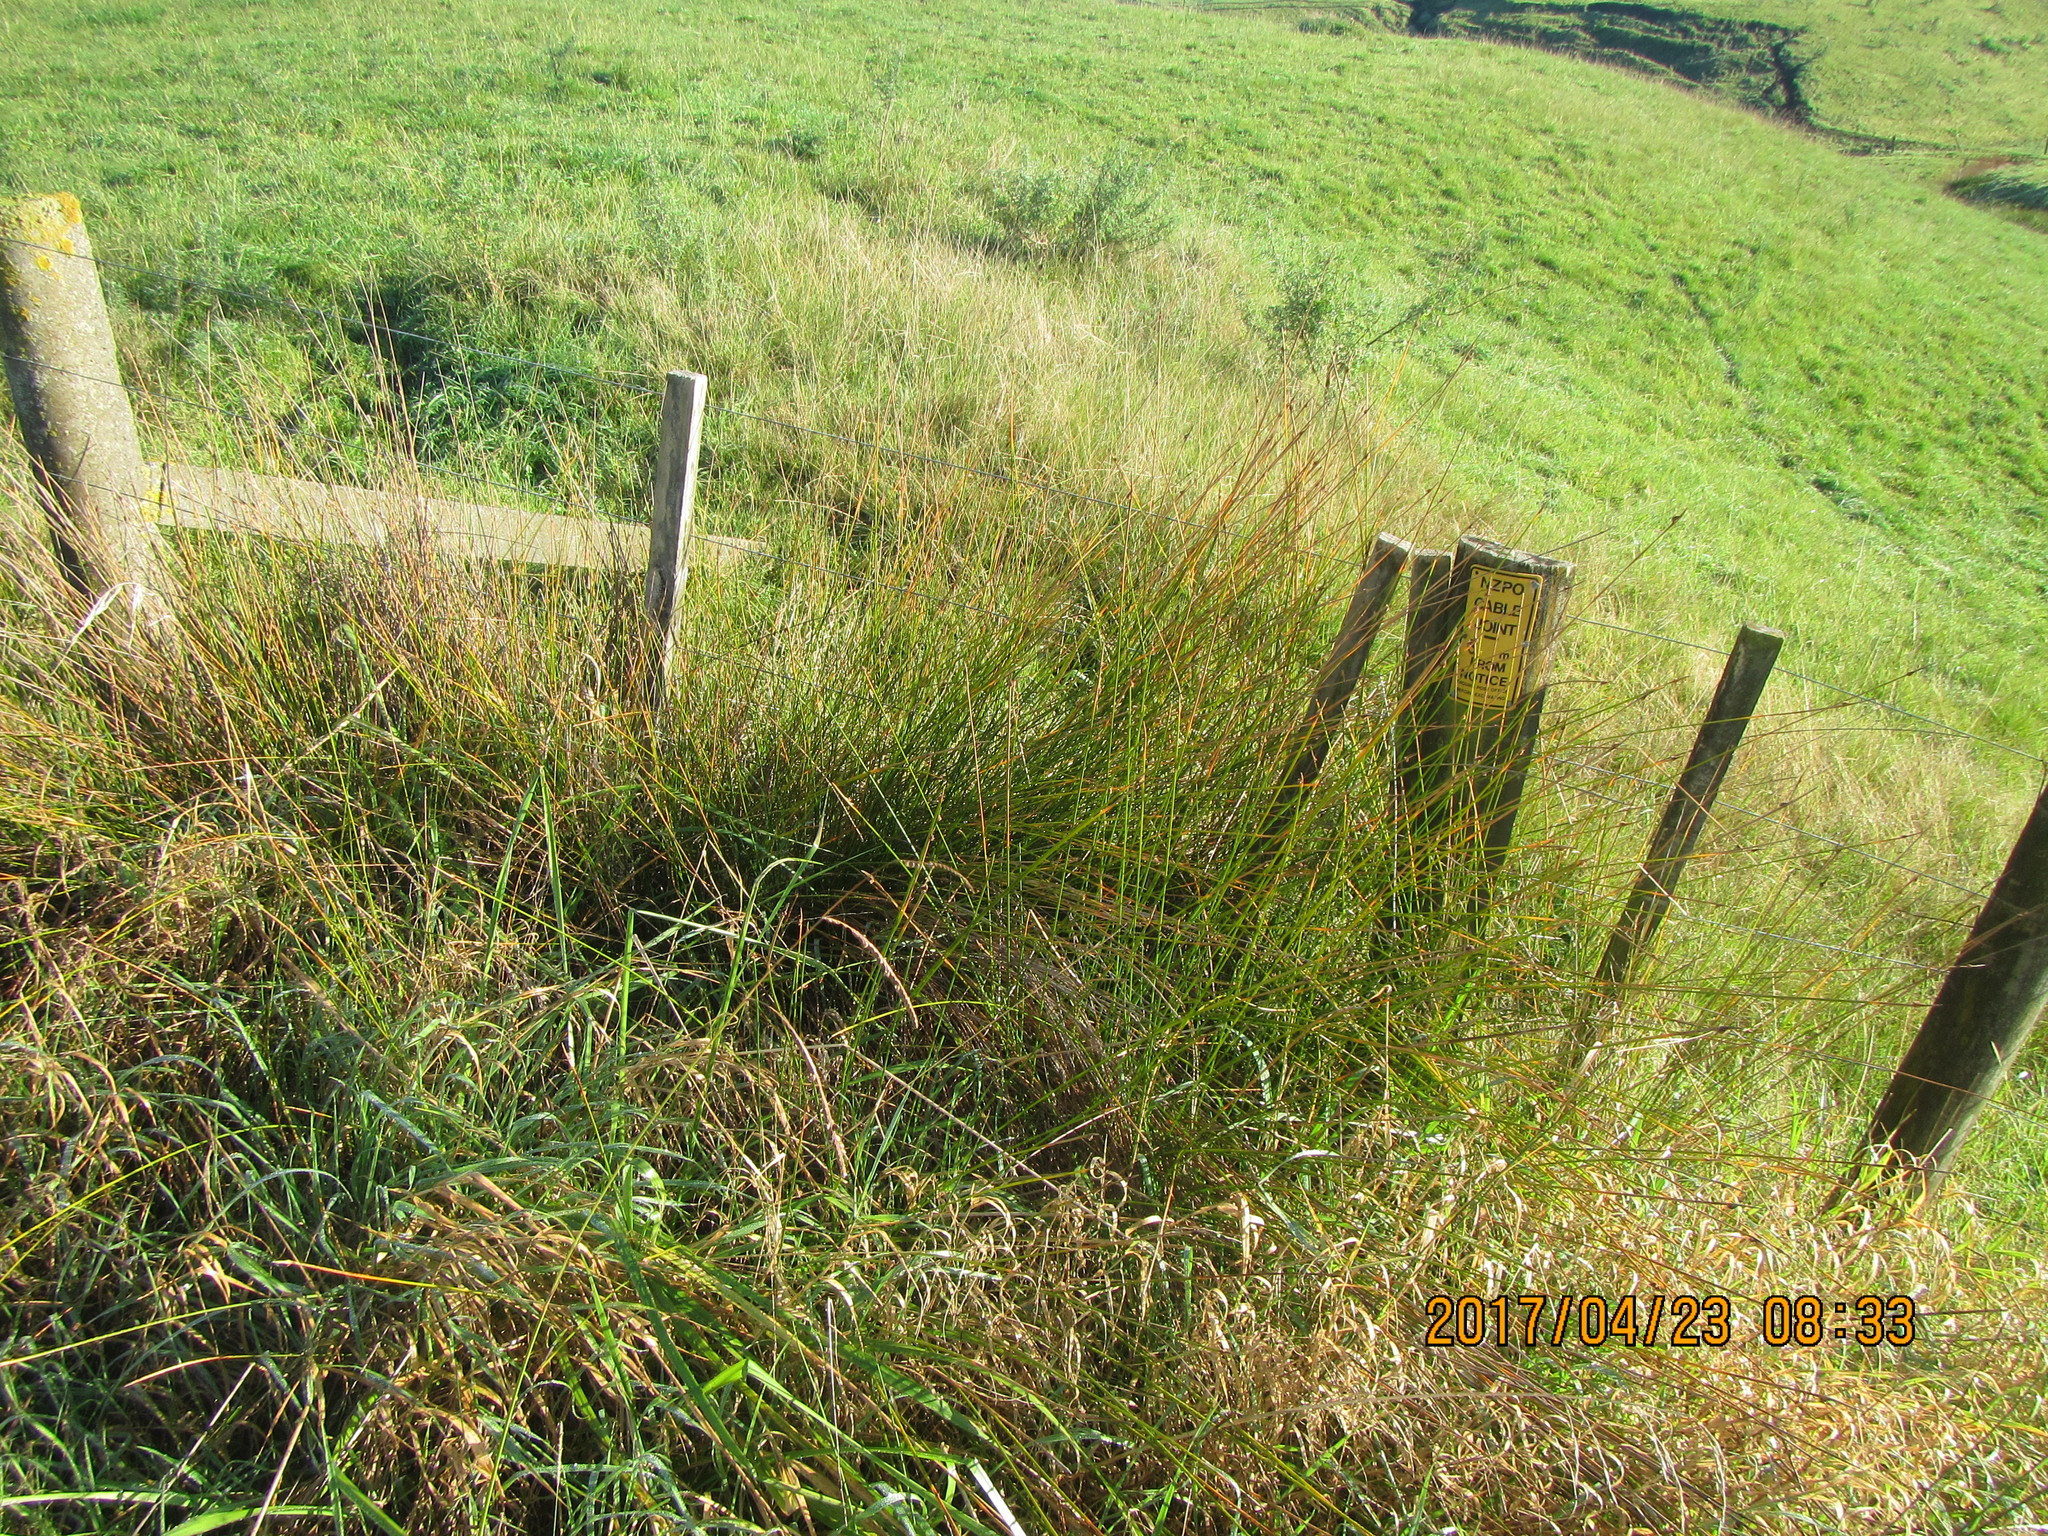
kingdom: Plantae
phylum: Tracheophyta
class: Liliopsida
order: Poales
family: Cyperaceae
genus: Ficinia
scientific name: Ficinia nodosa
